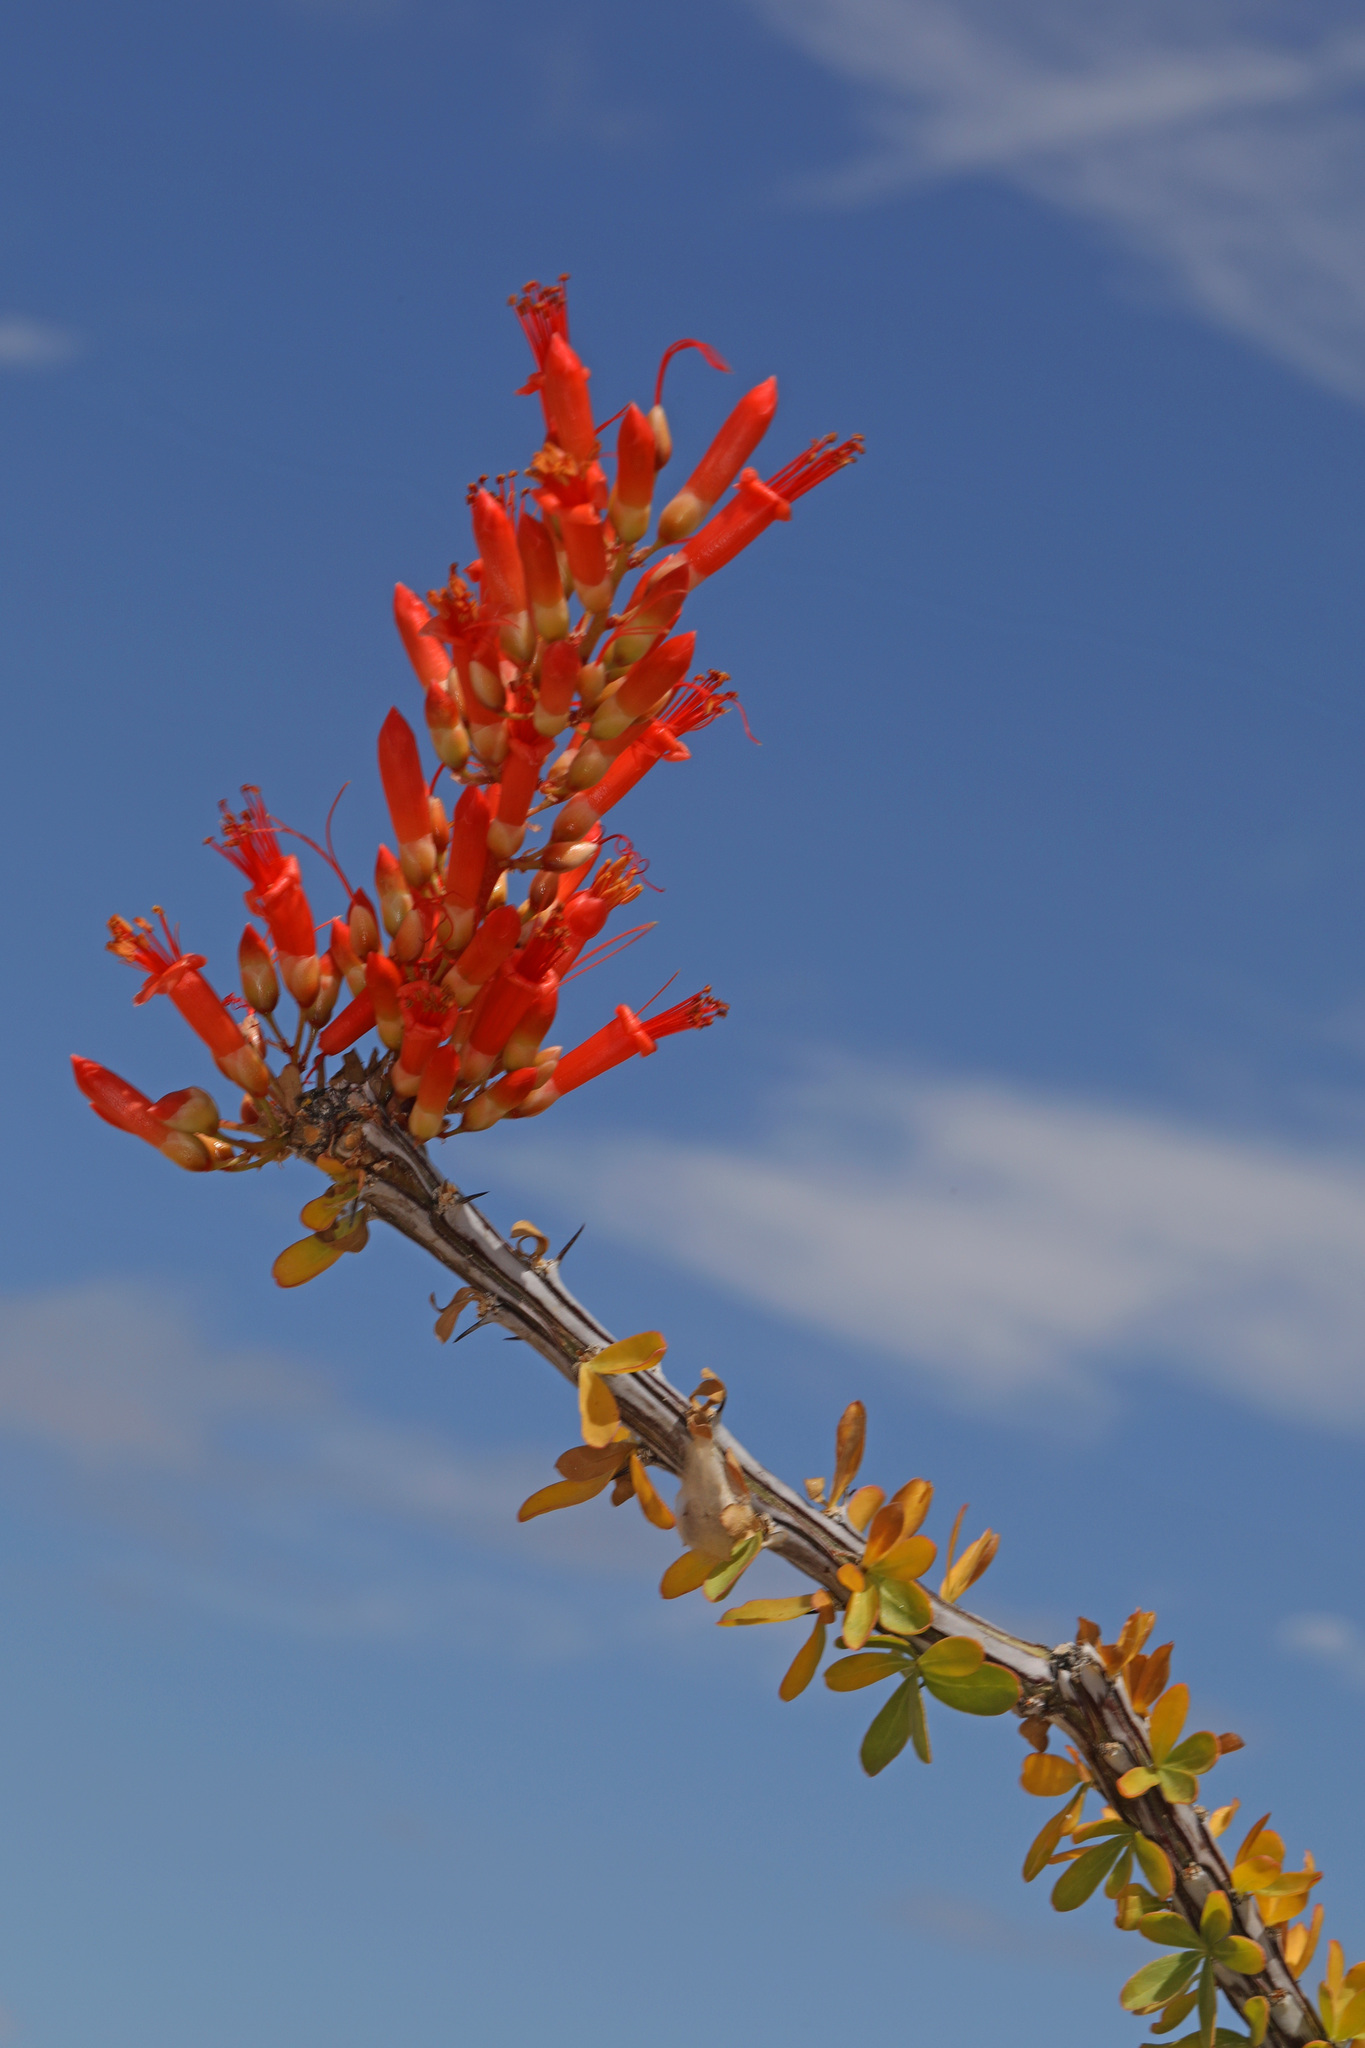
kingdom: Plantae
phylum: Tracheophyta
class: Magnoliopsida
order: Ericales
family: Fouquieriaceae
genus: Fouquieria
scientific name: Fouquieria splendens
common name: Vine-cactus
